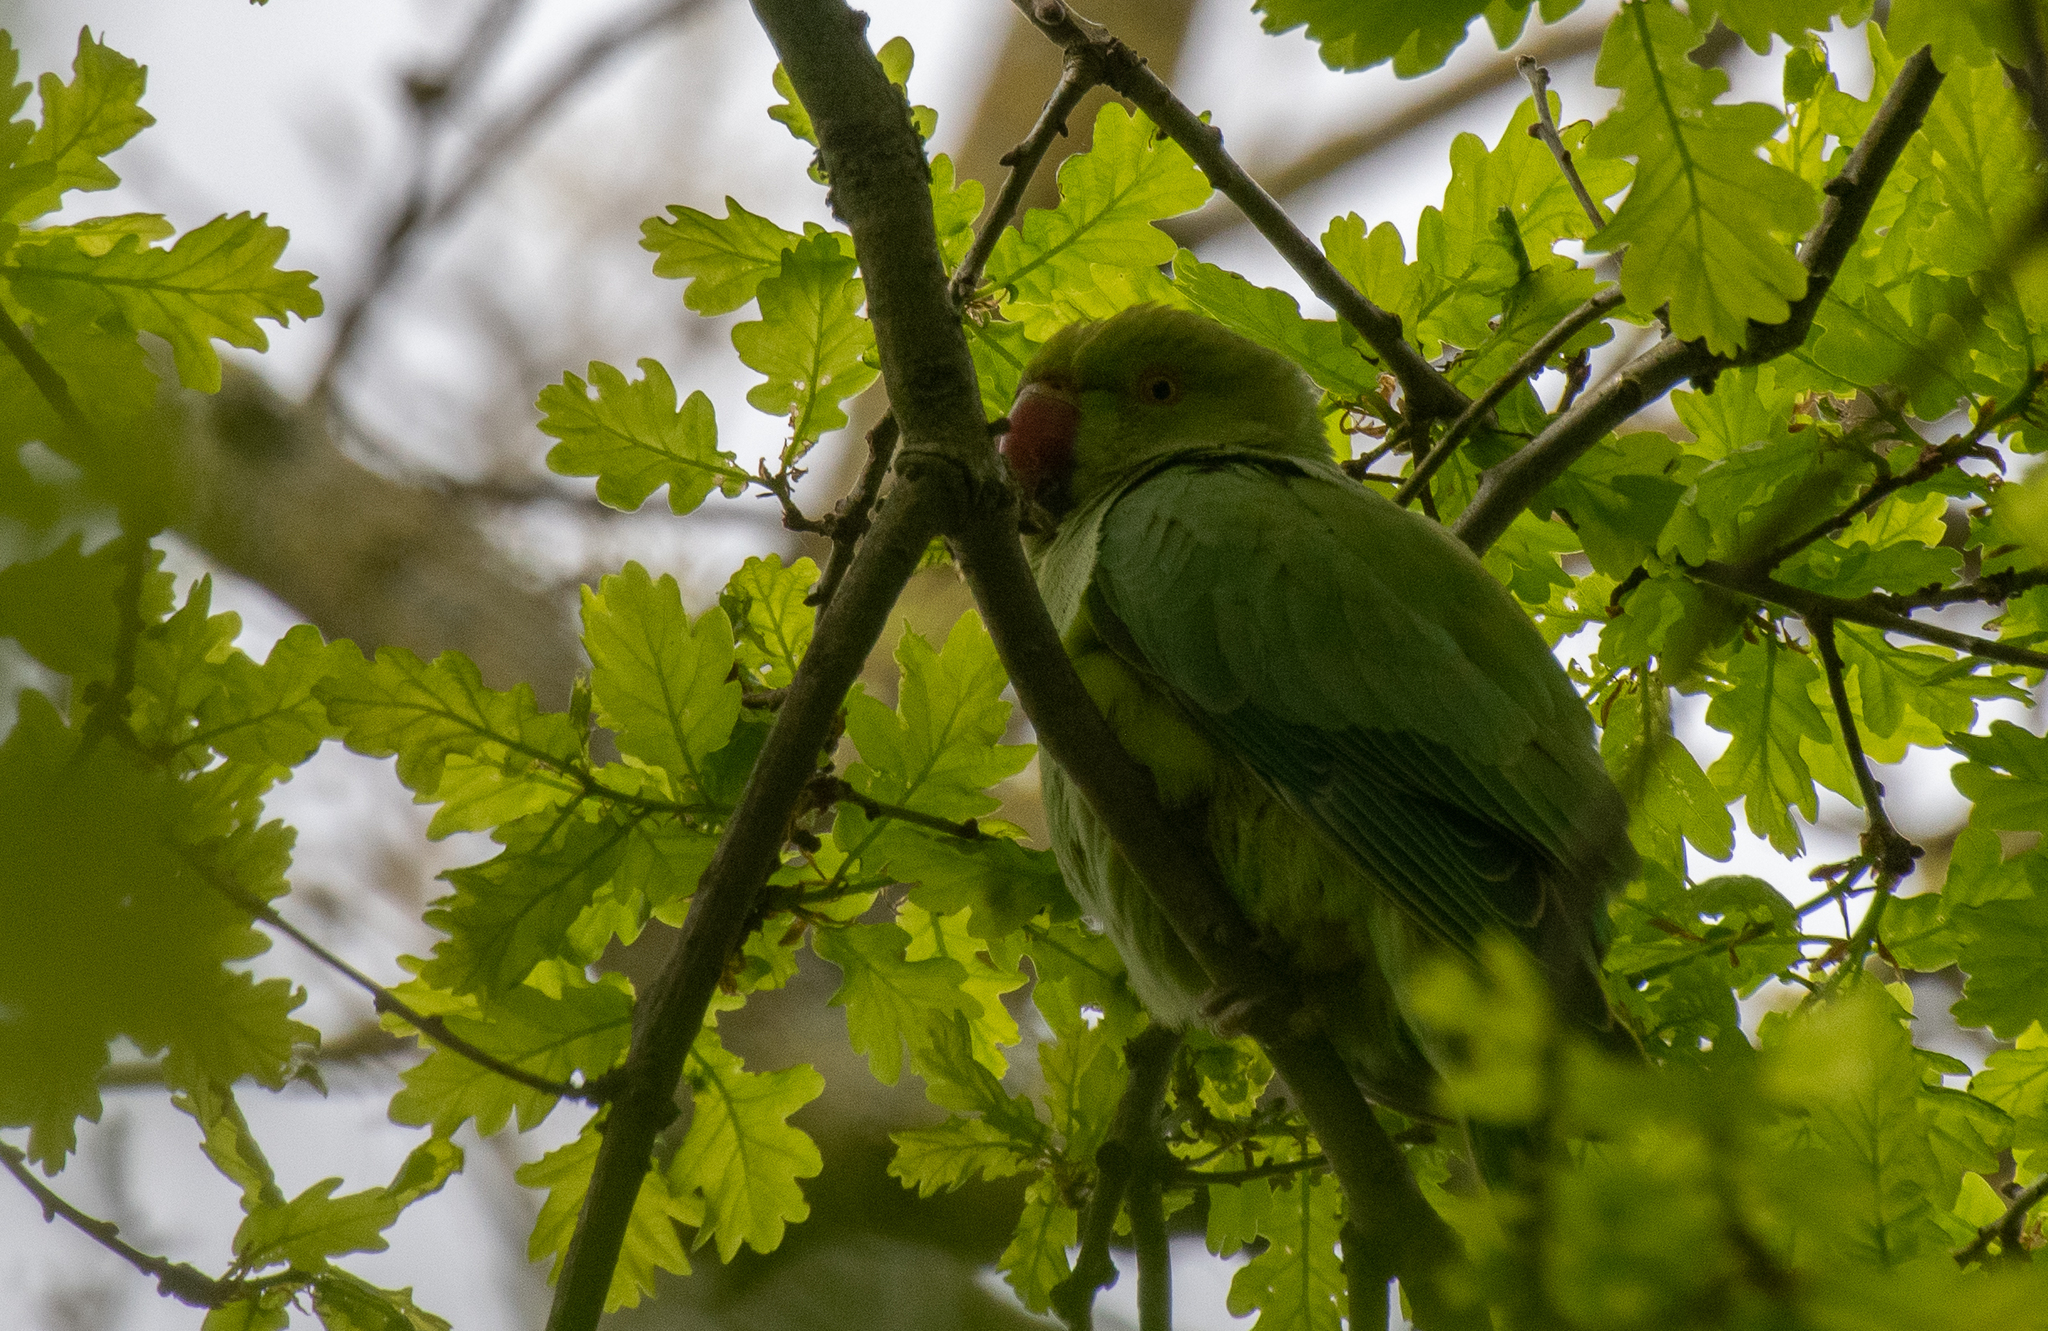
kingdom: Animalia
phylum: Chordata
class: Aves
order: Psittaciformes
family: Psittacidae
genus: Psittacula
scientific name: Psittacula krameri
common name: Rose-ringed parakeet
